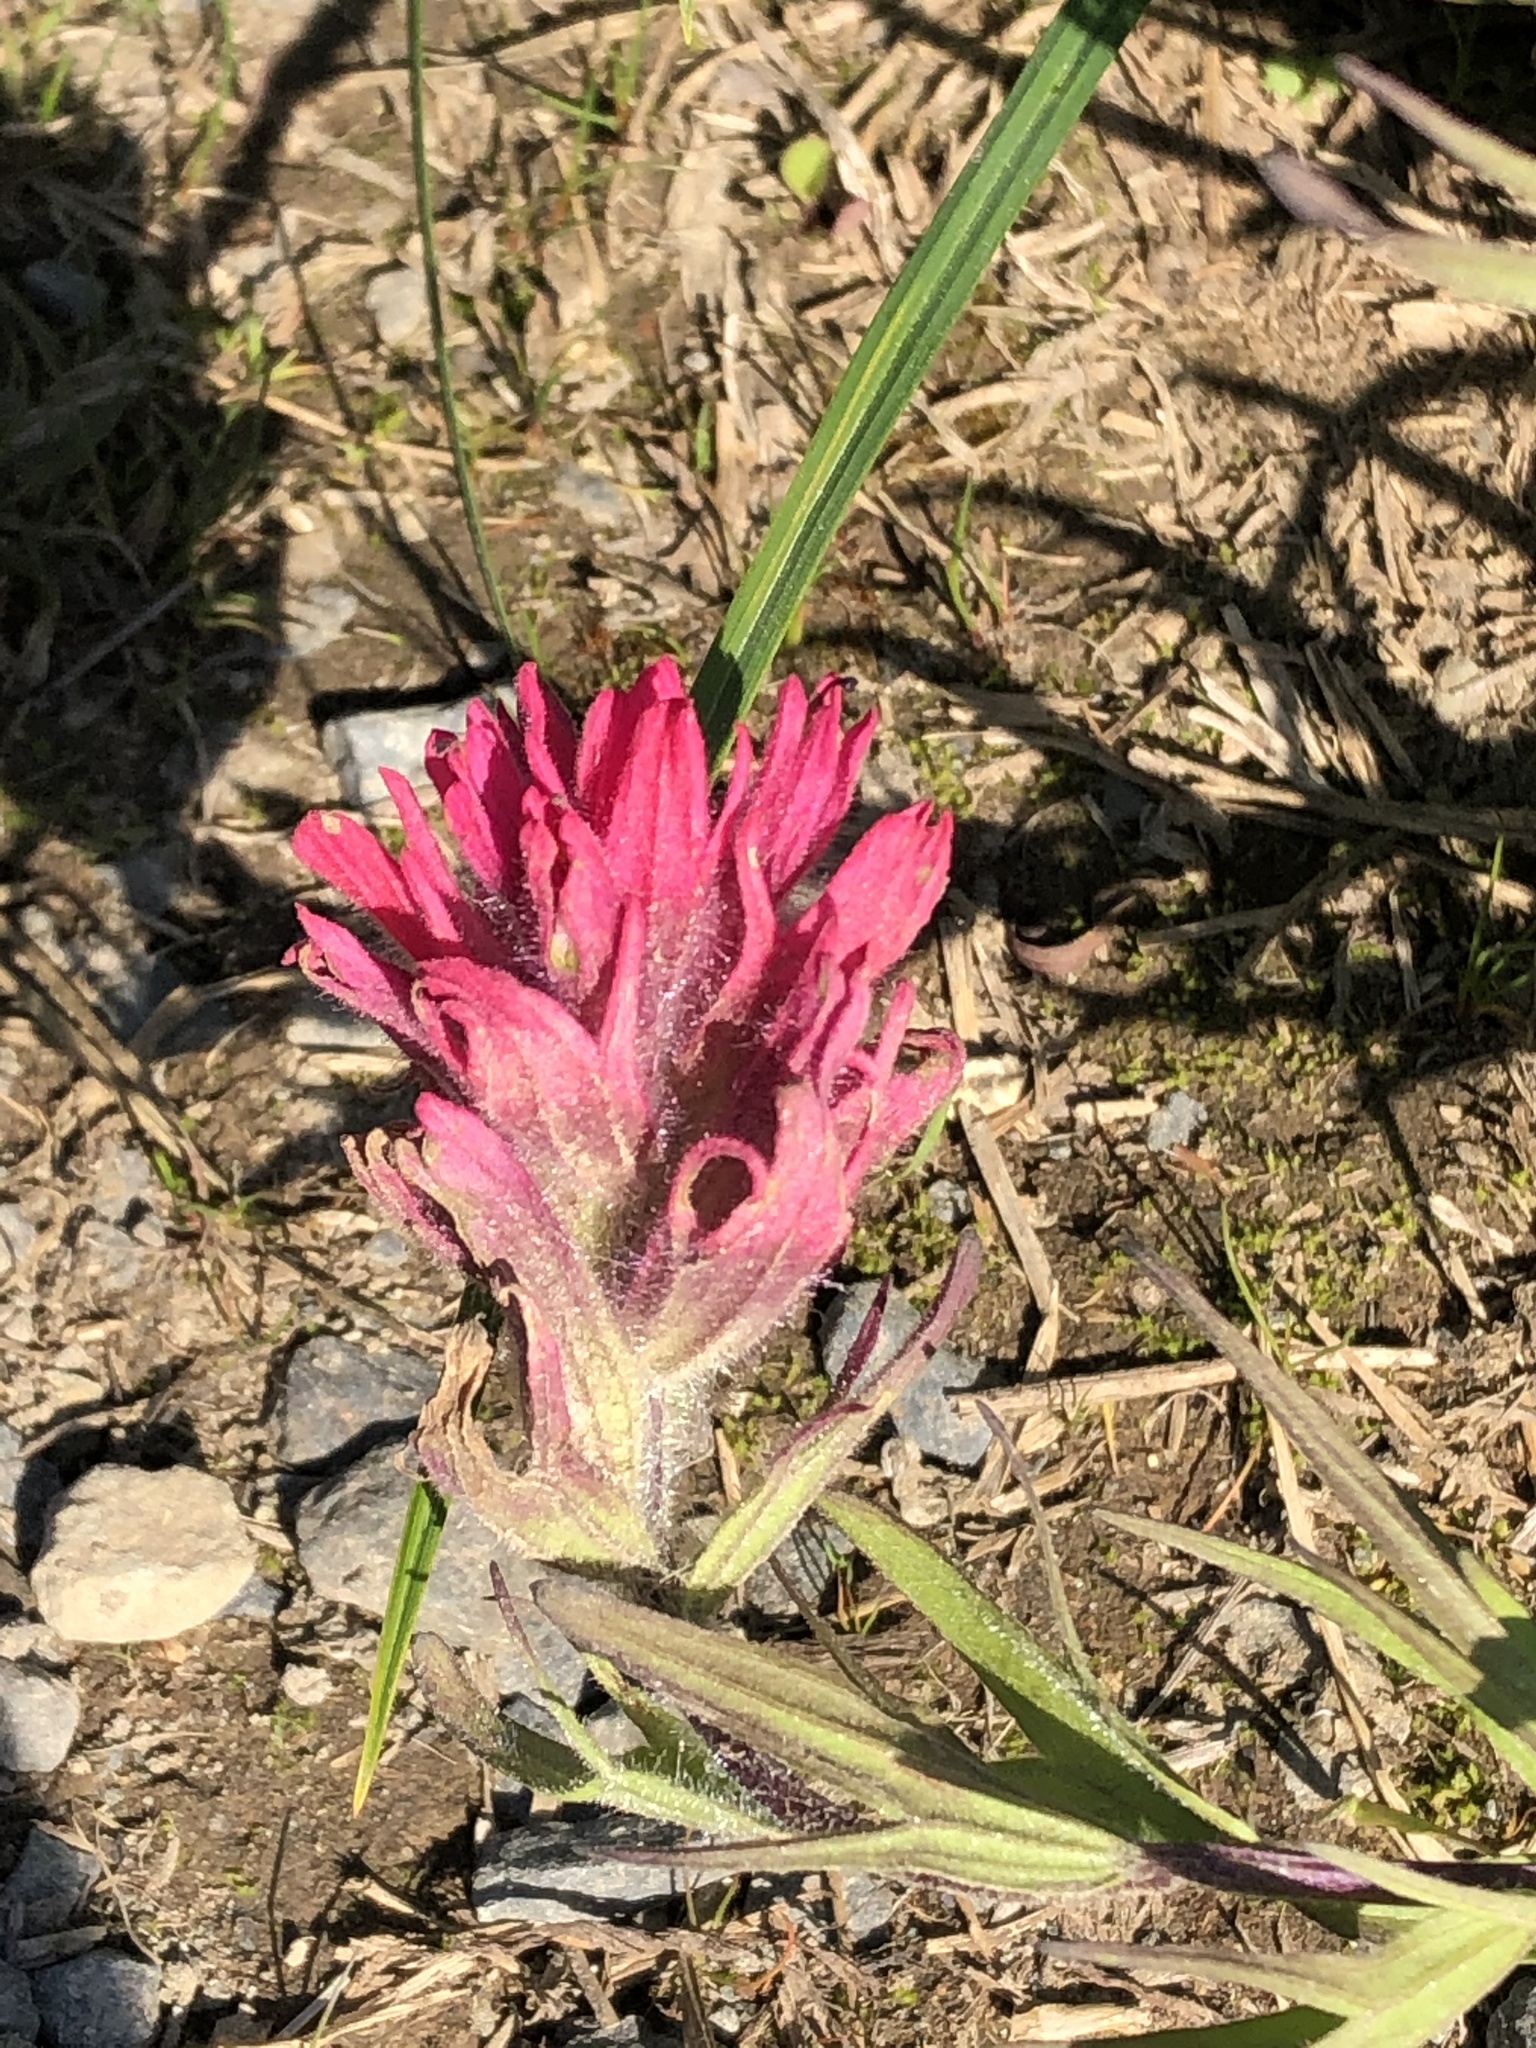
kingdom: Plantae
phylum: Tracheophyta
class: Magnoliopsida
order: Lamiales
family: Orobanchaceae
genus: Castilleja
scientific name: Castilleja parviflora
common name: Mountain paintbrush
